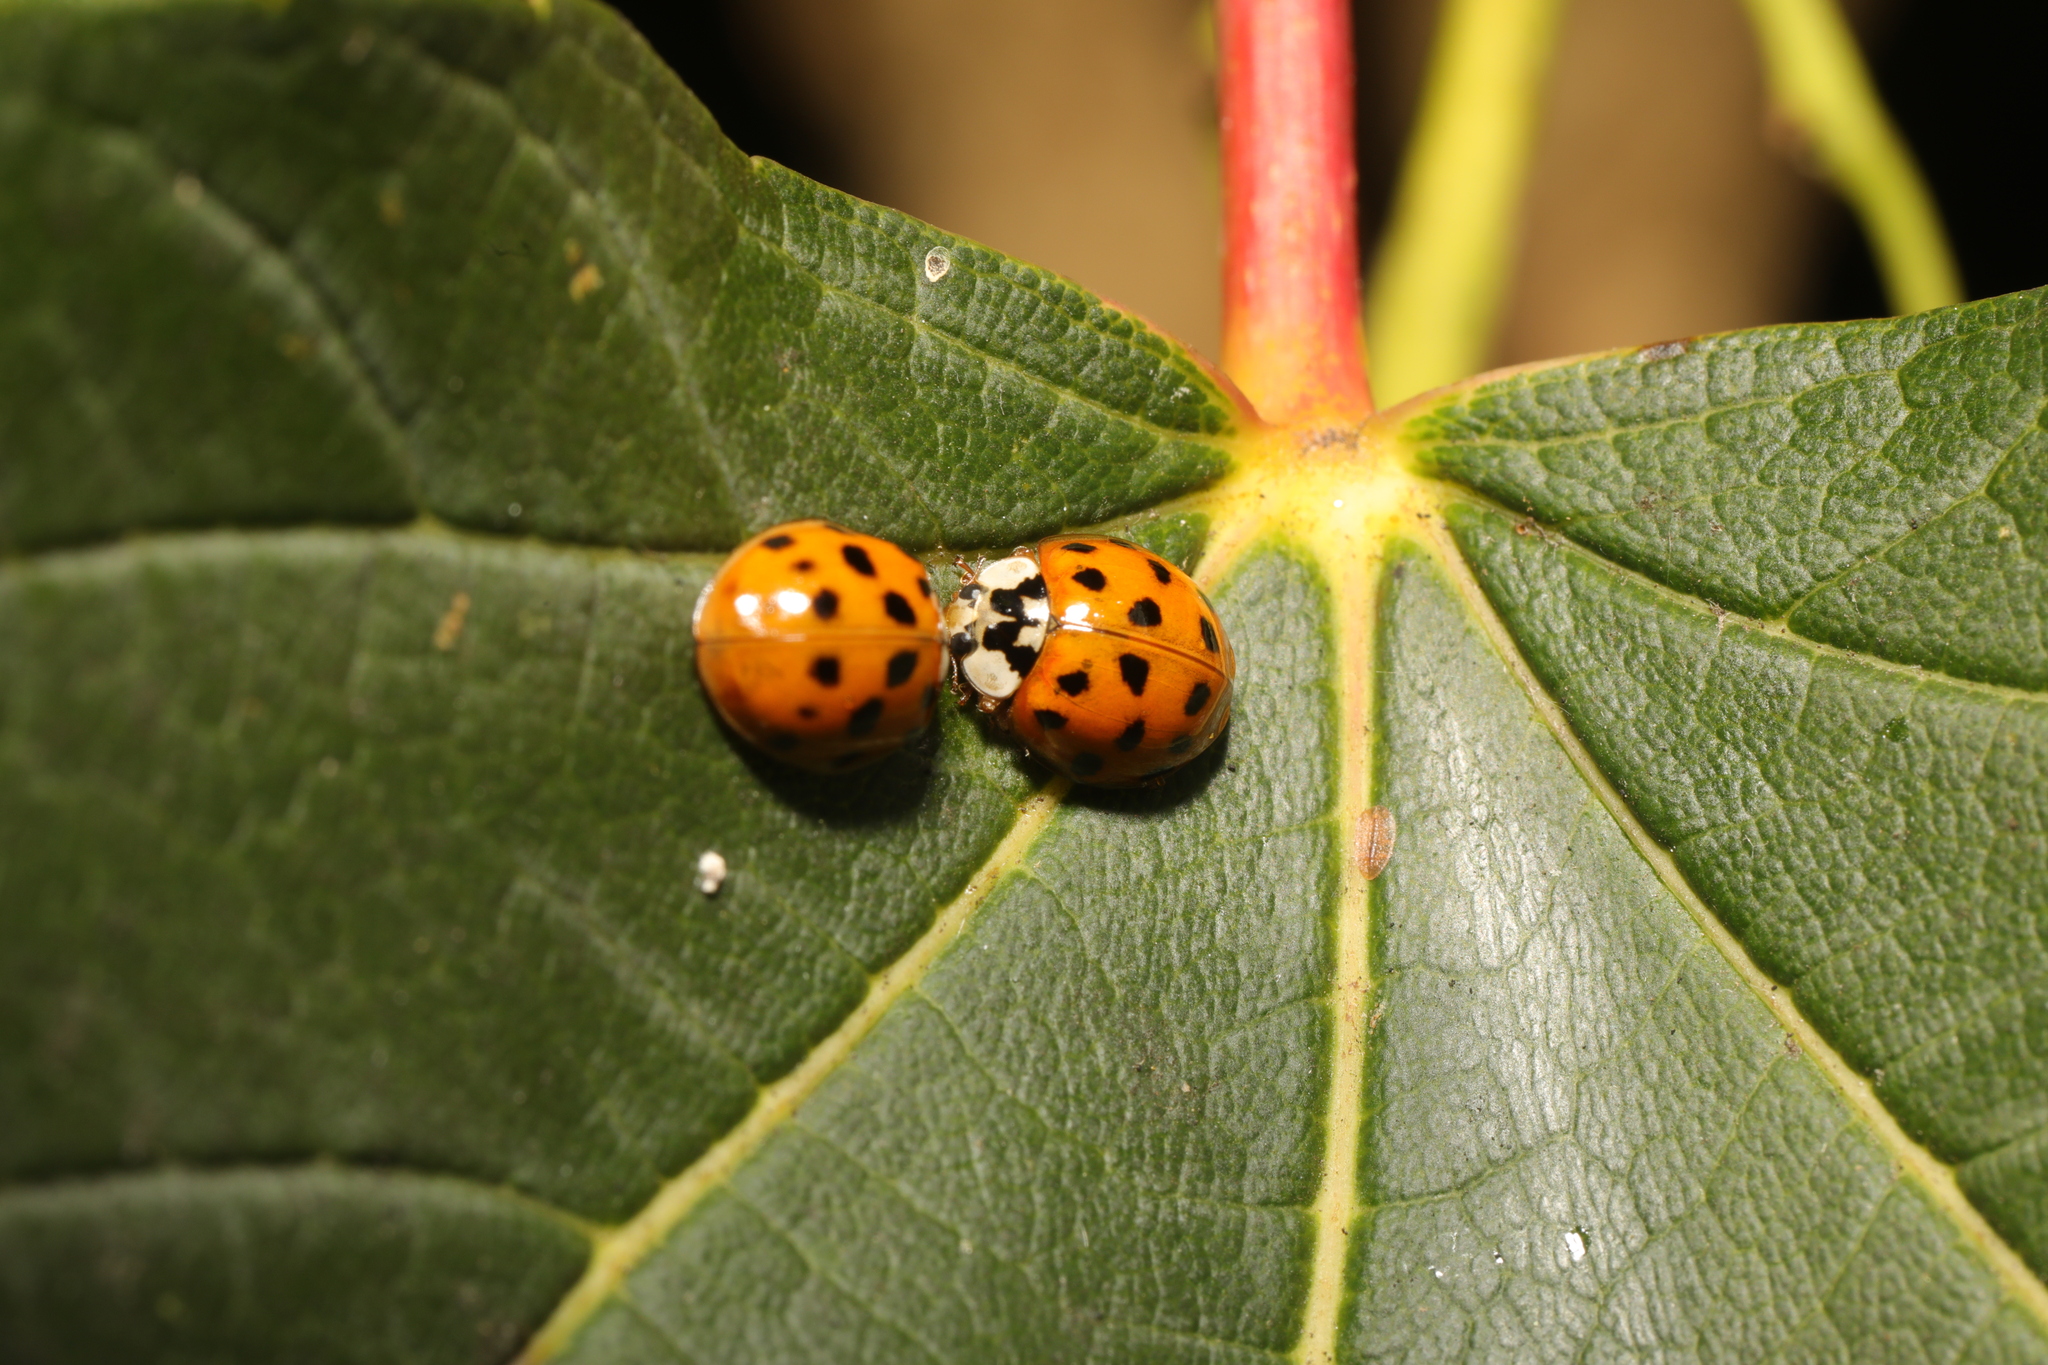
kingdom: Animalia
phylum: Arthropoda
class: Insecta
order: Coleoptera
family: Coccinellidae
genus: Harmonia
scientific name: Harmonia axyridis
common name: Harlequin ladybird
